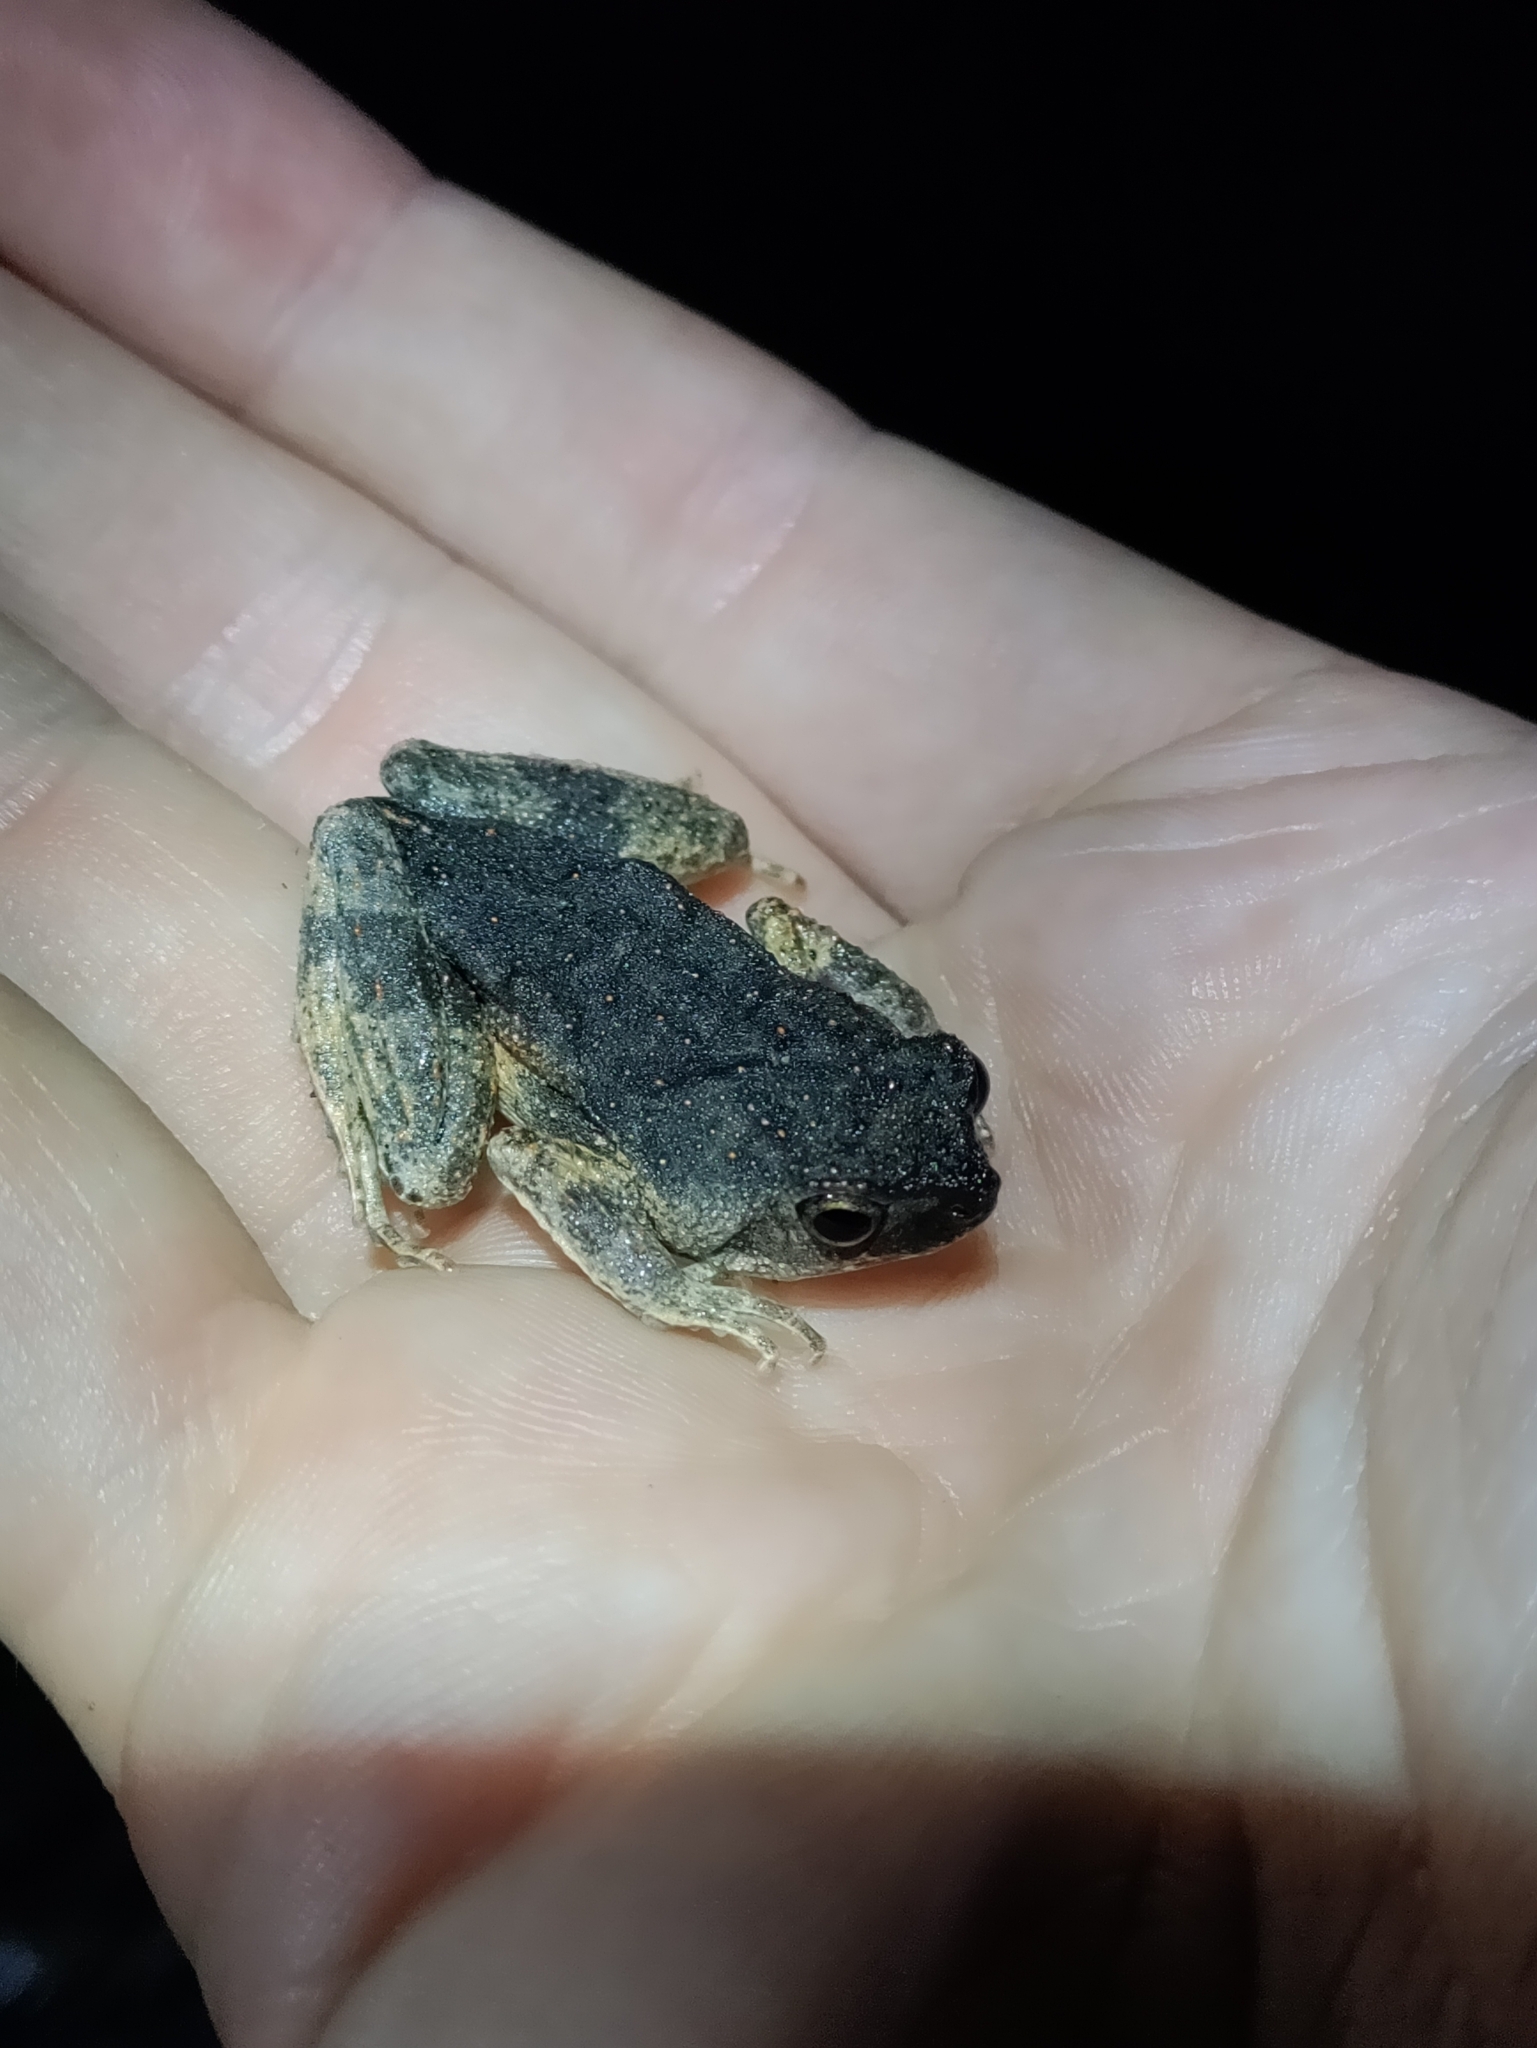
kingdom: Animalia
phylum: Chordata
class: Amphibia
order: Anura
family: Leptodactylidae
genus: Engystomops
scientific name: Engystomops petersi
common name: Peters’ dwarf frog
